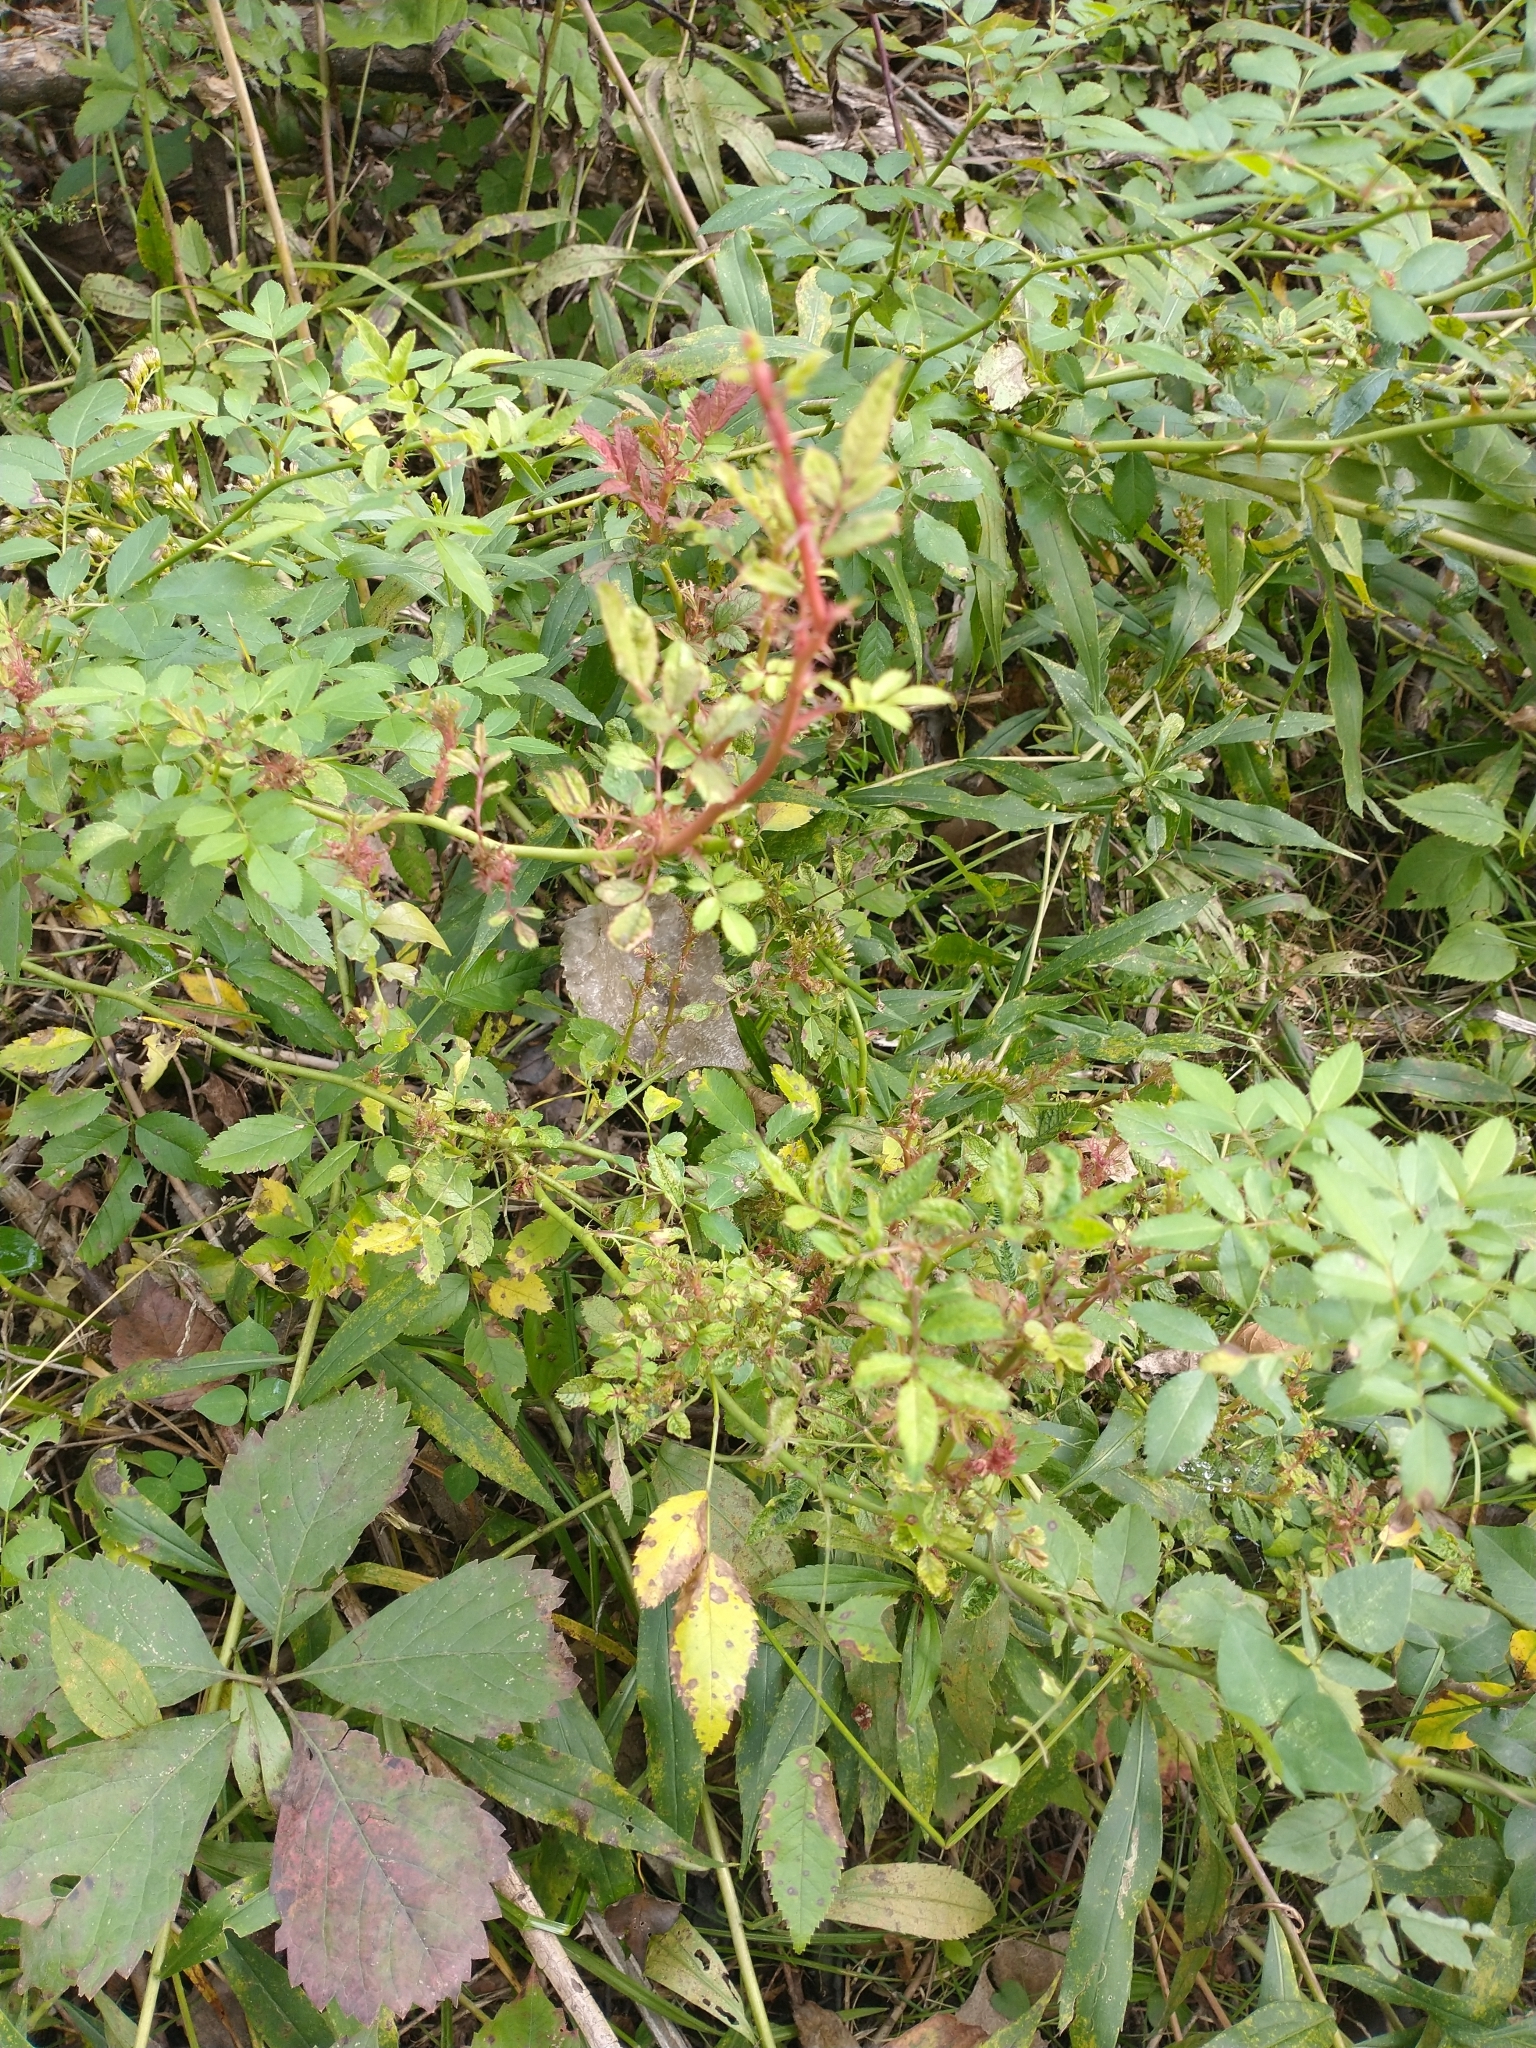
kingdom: Viruses
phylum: Negarnaviricota
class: Ellioviricetes
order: Bunyavirales
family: Fimoviridae
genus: Emaravirus
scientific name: Emaravirus rosae
